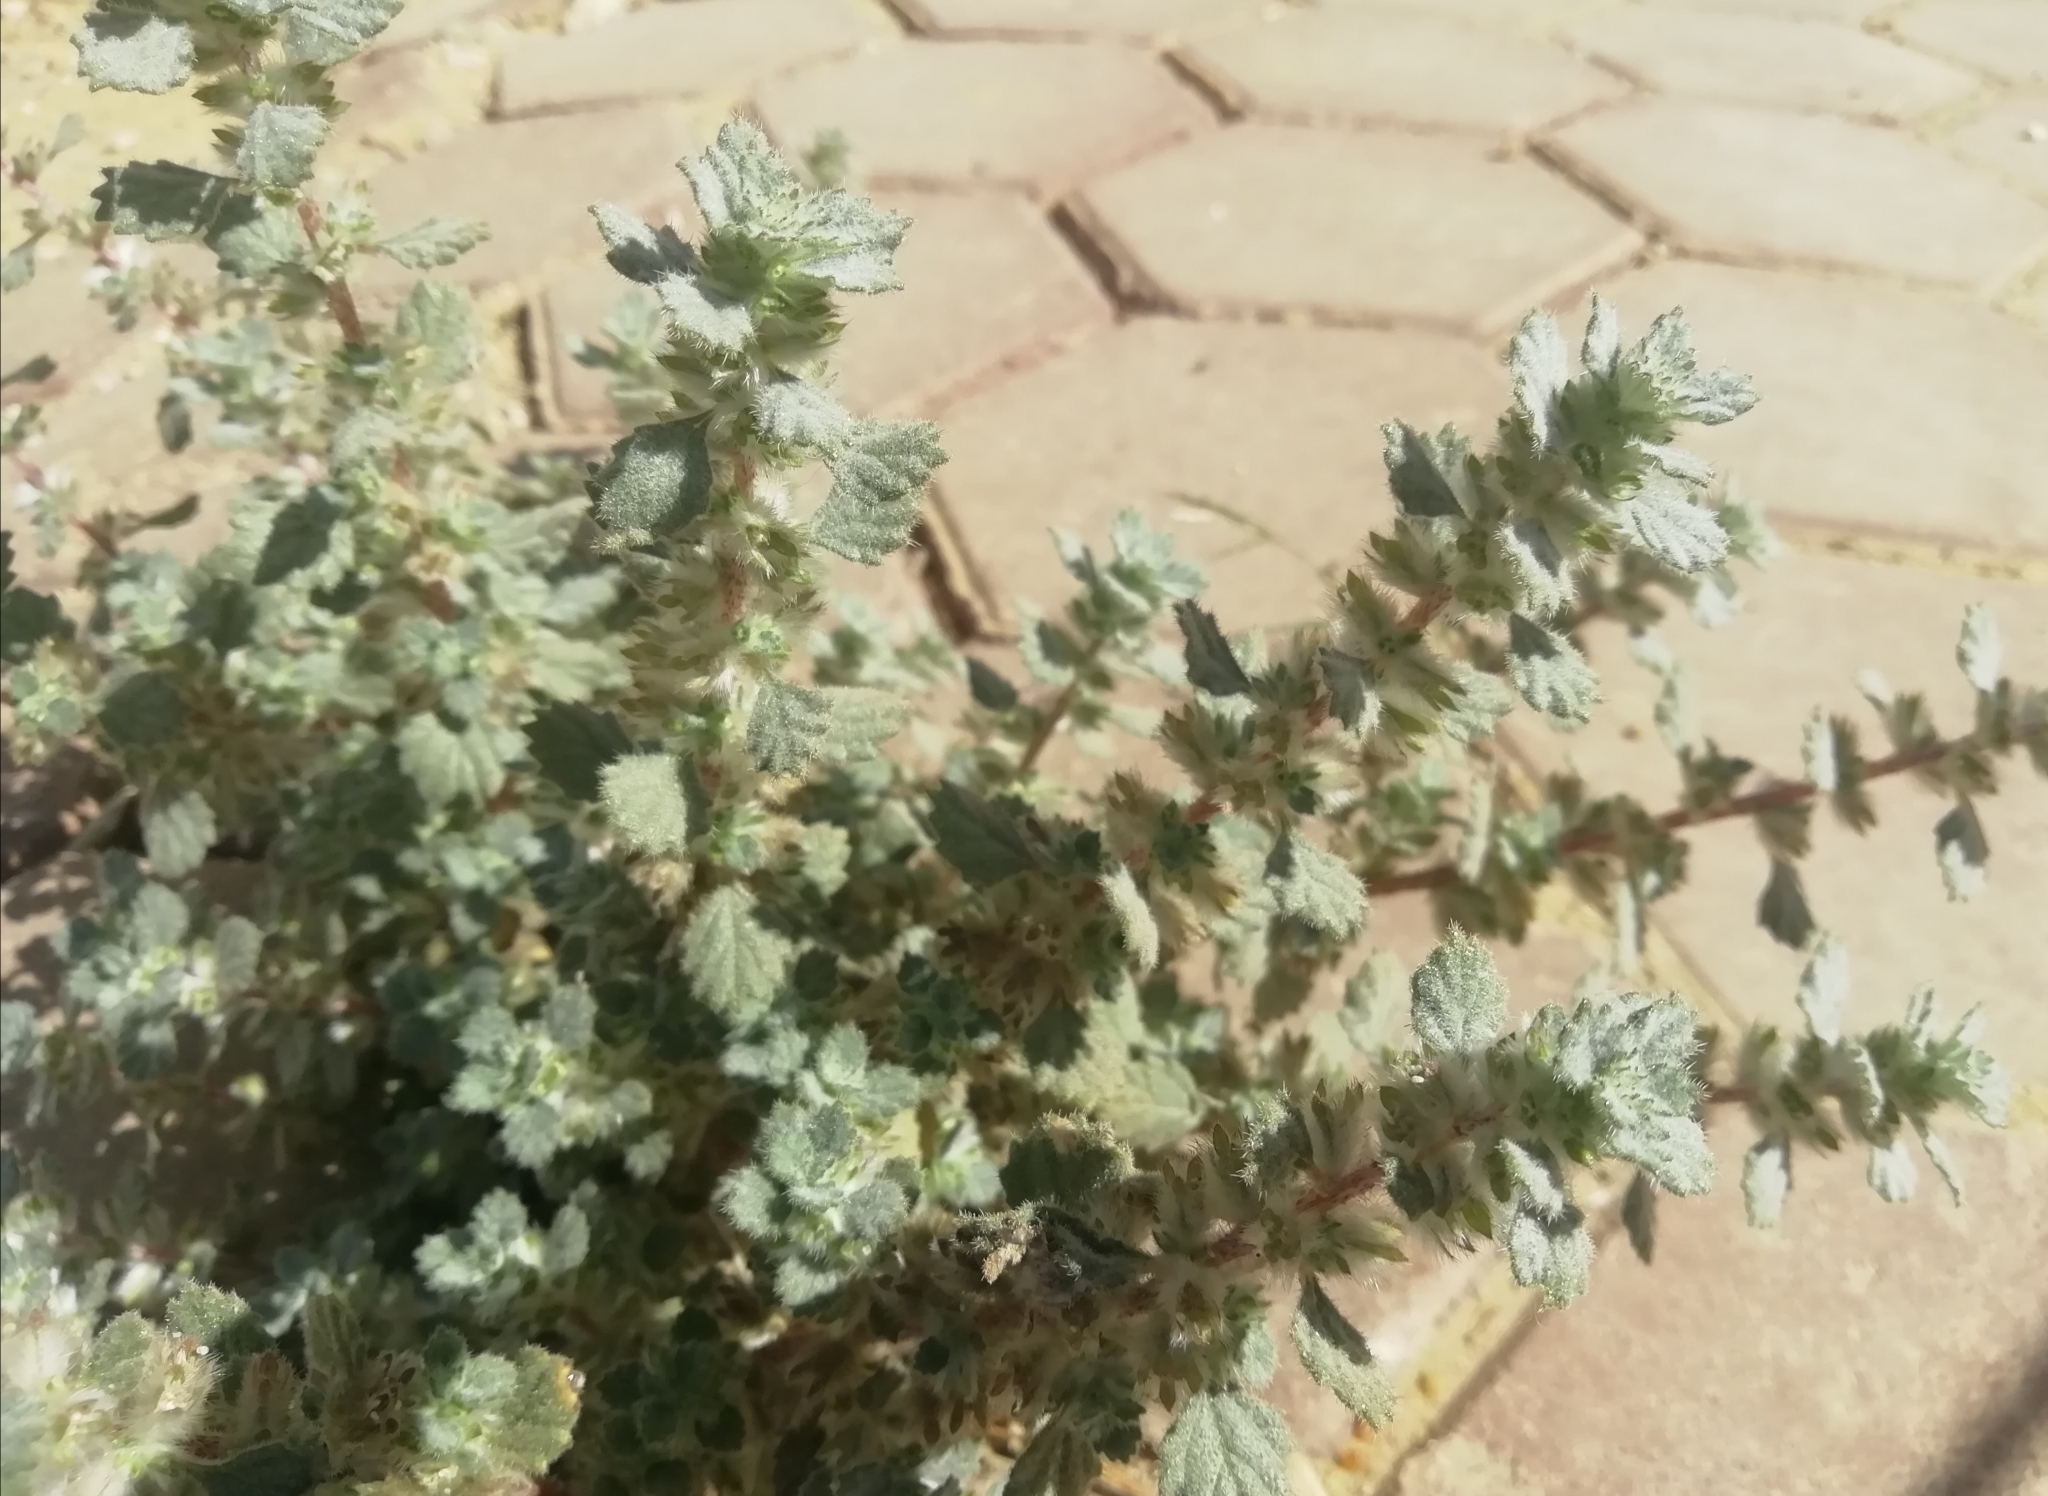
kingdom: Plantae
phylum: Tracheophyta
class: Magnoliopsida
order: Rosales
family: Urticaceae
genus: Forsskaolea
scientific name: Forsskaolea tenacissima
